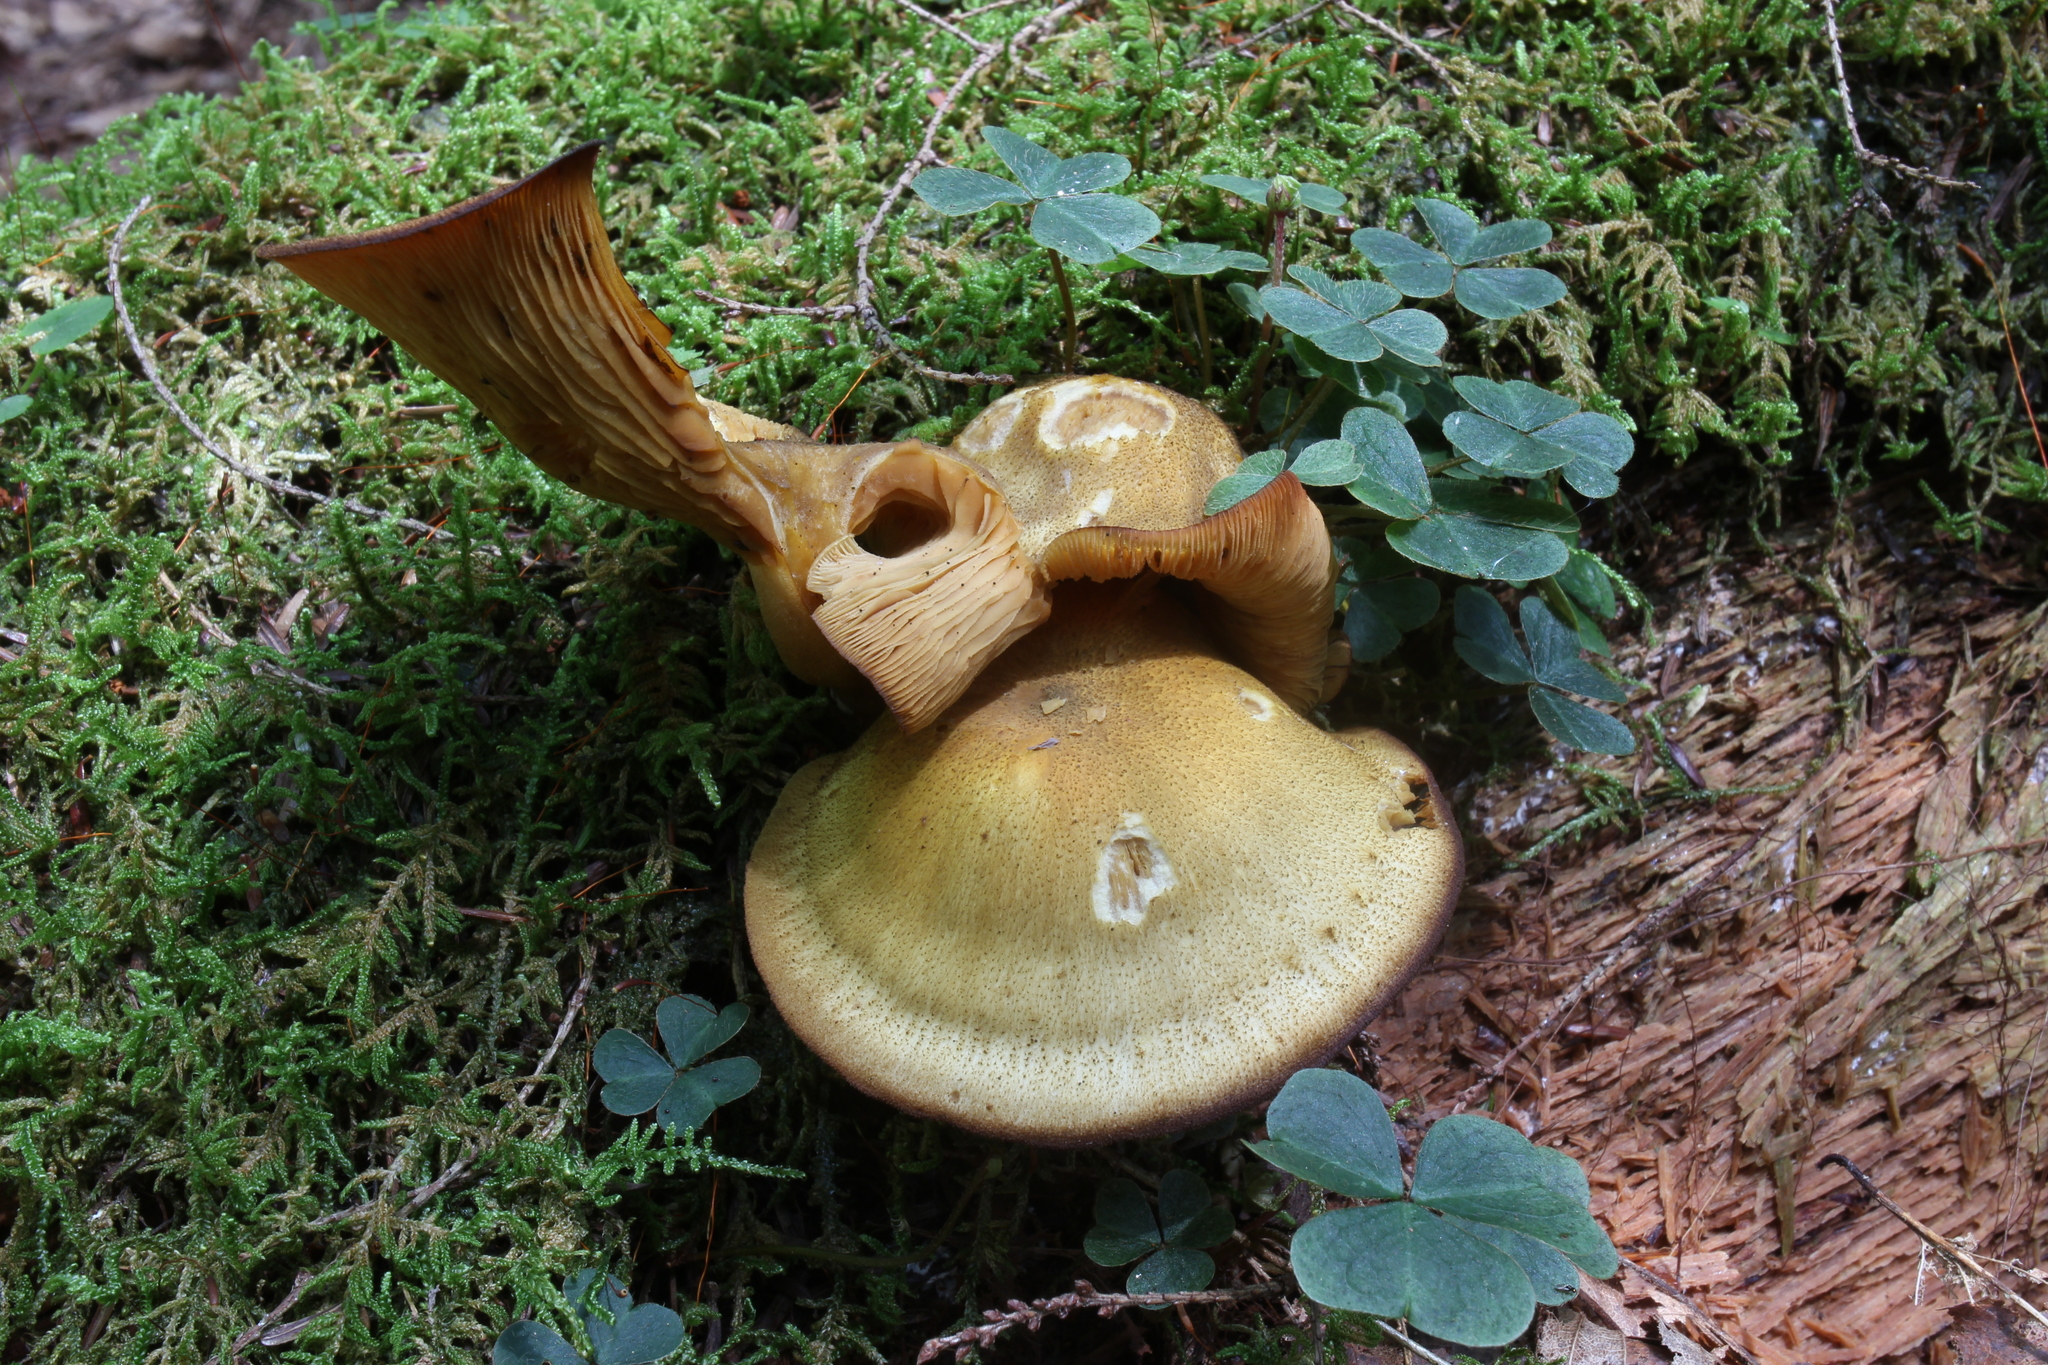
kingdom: Fungi
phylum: Basidiomycota
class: Agaricomycetes
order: Agaricales
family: Tricholomataceae
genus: Tricholomopsis
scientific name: Tricholomopsis decora
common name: Prunes and custard
